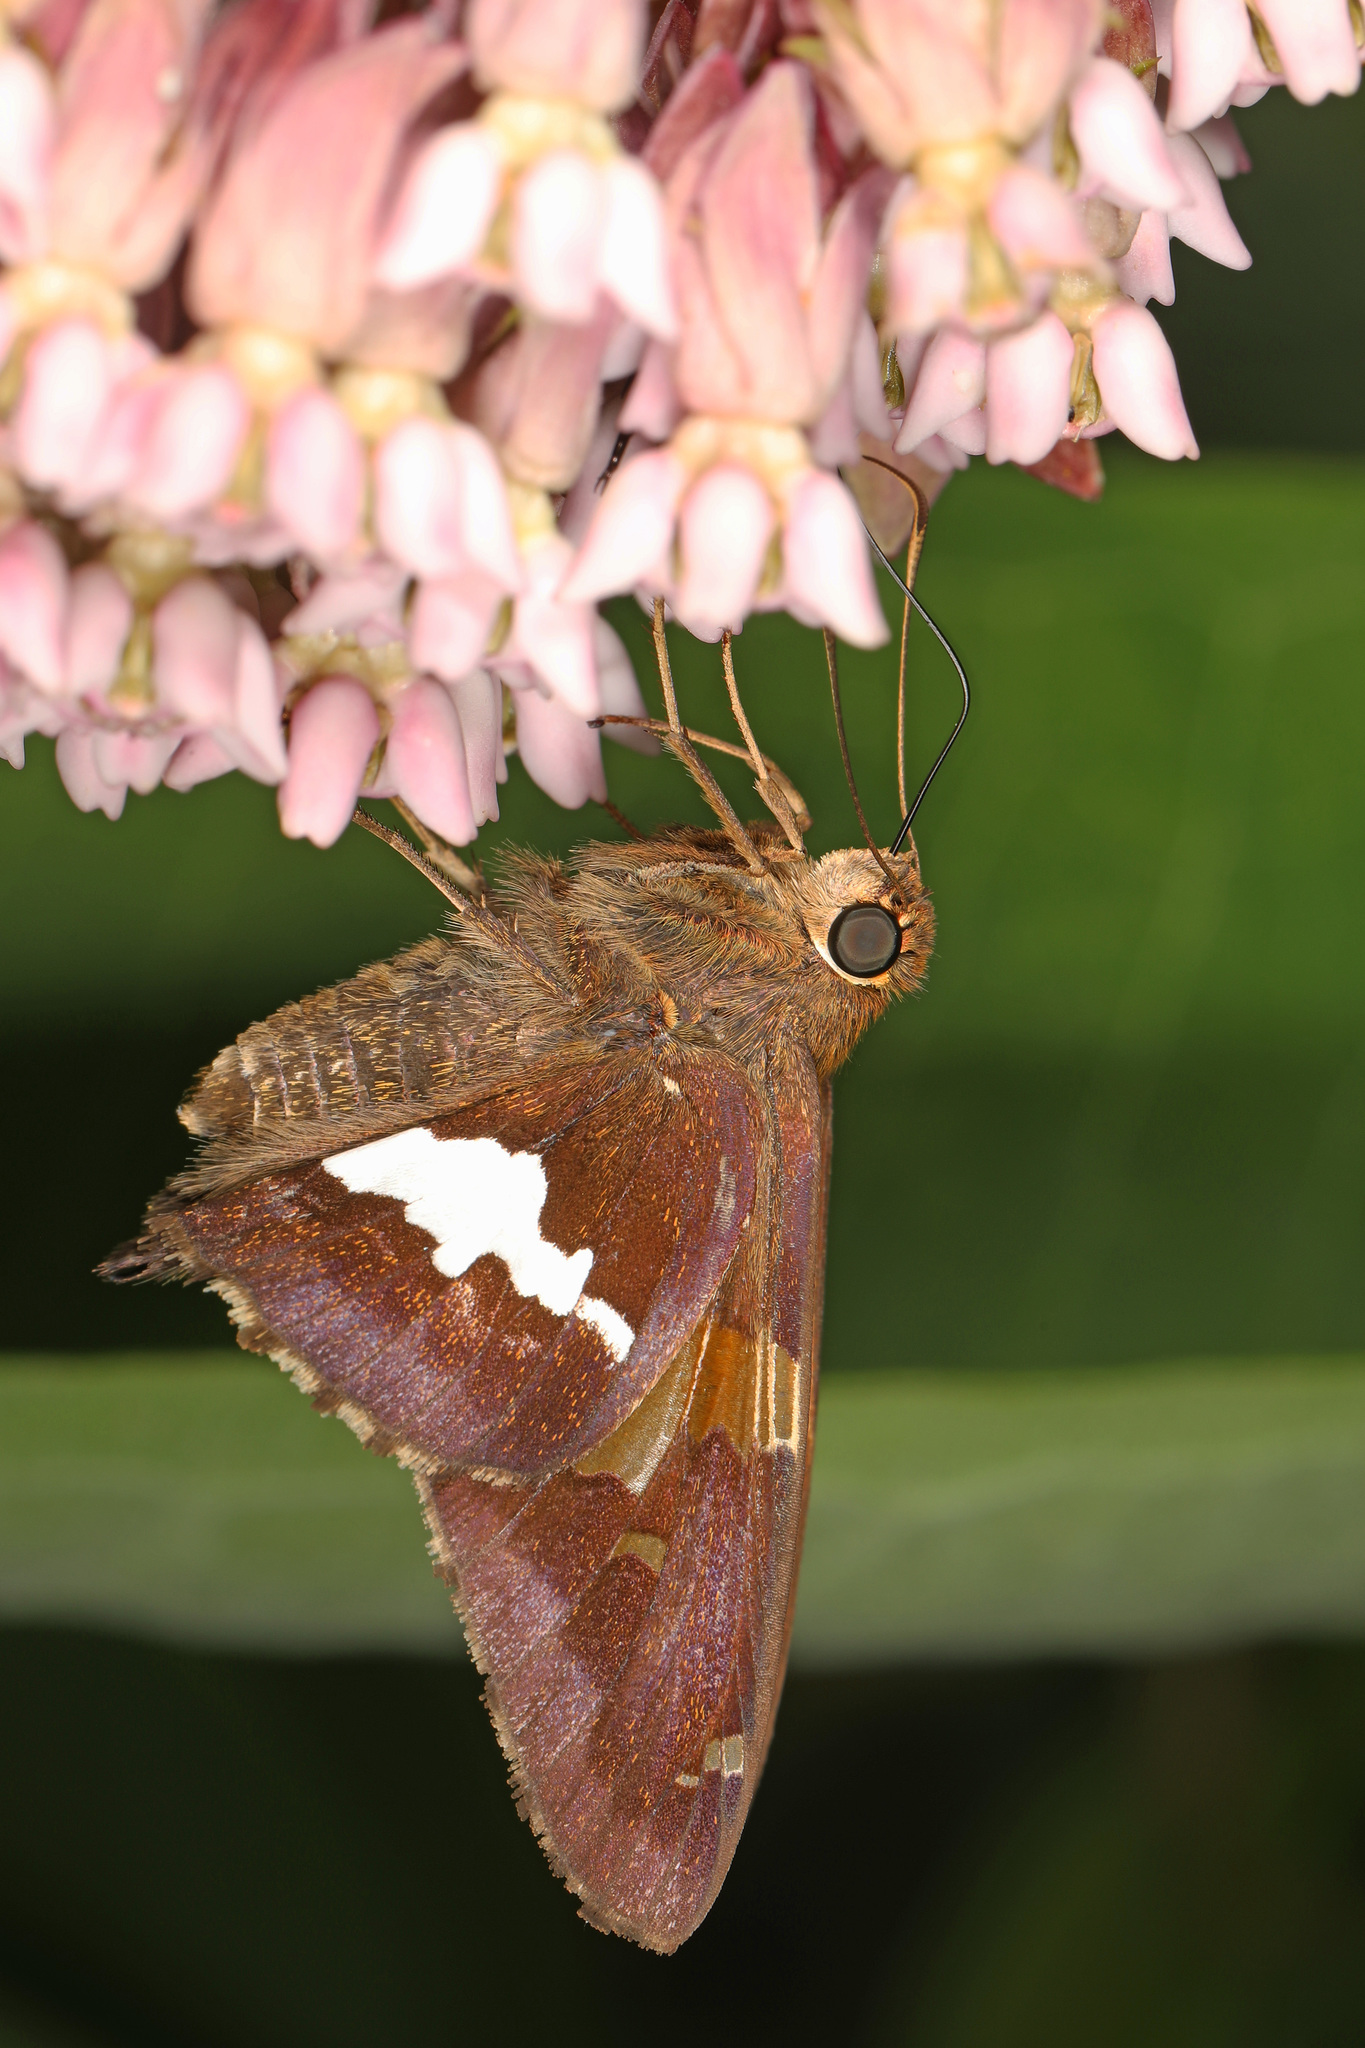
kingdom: Animalia
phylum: Arthropoda
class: Insecta
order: Lepidoptera
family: Hesperiidae
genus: Epargyreus
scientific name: Epargyreus clarus
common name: Silver-spotted skipper
